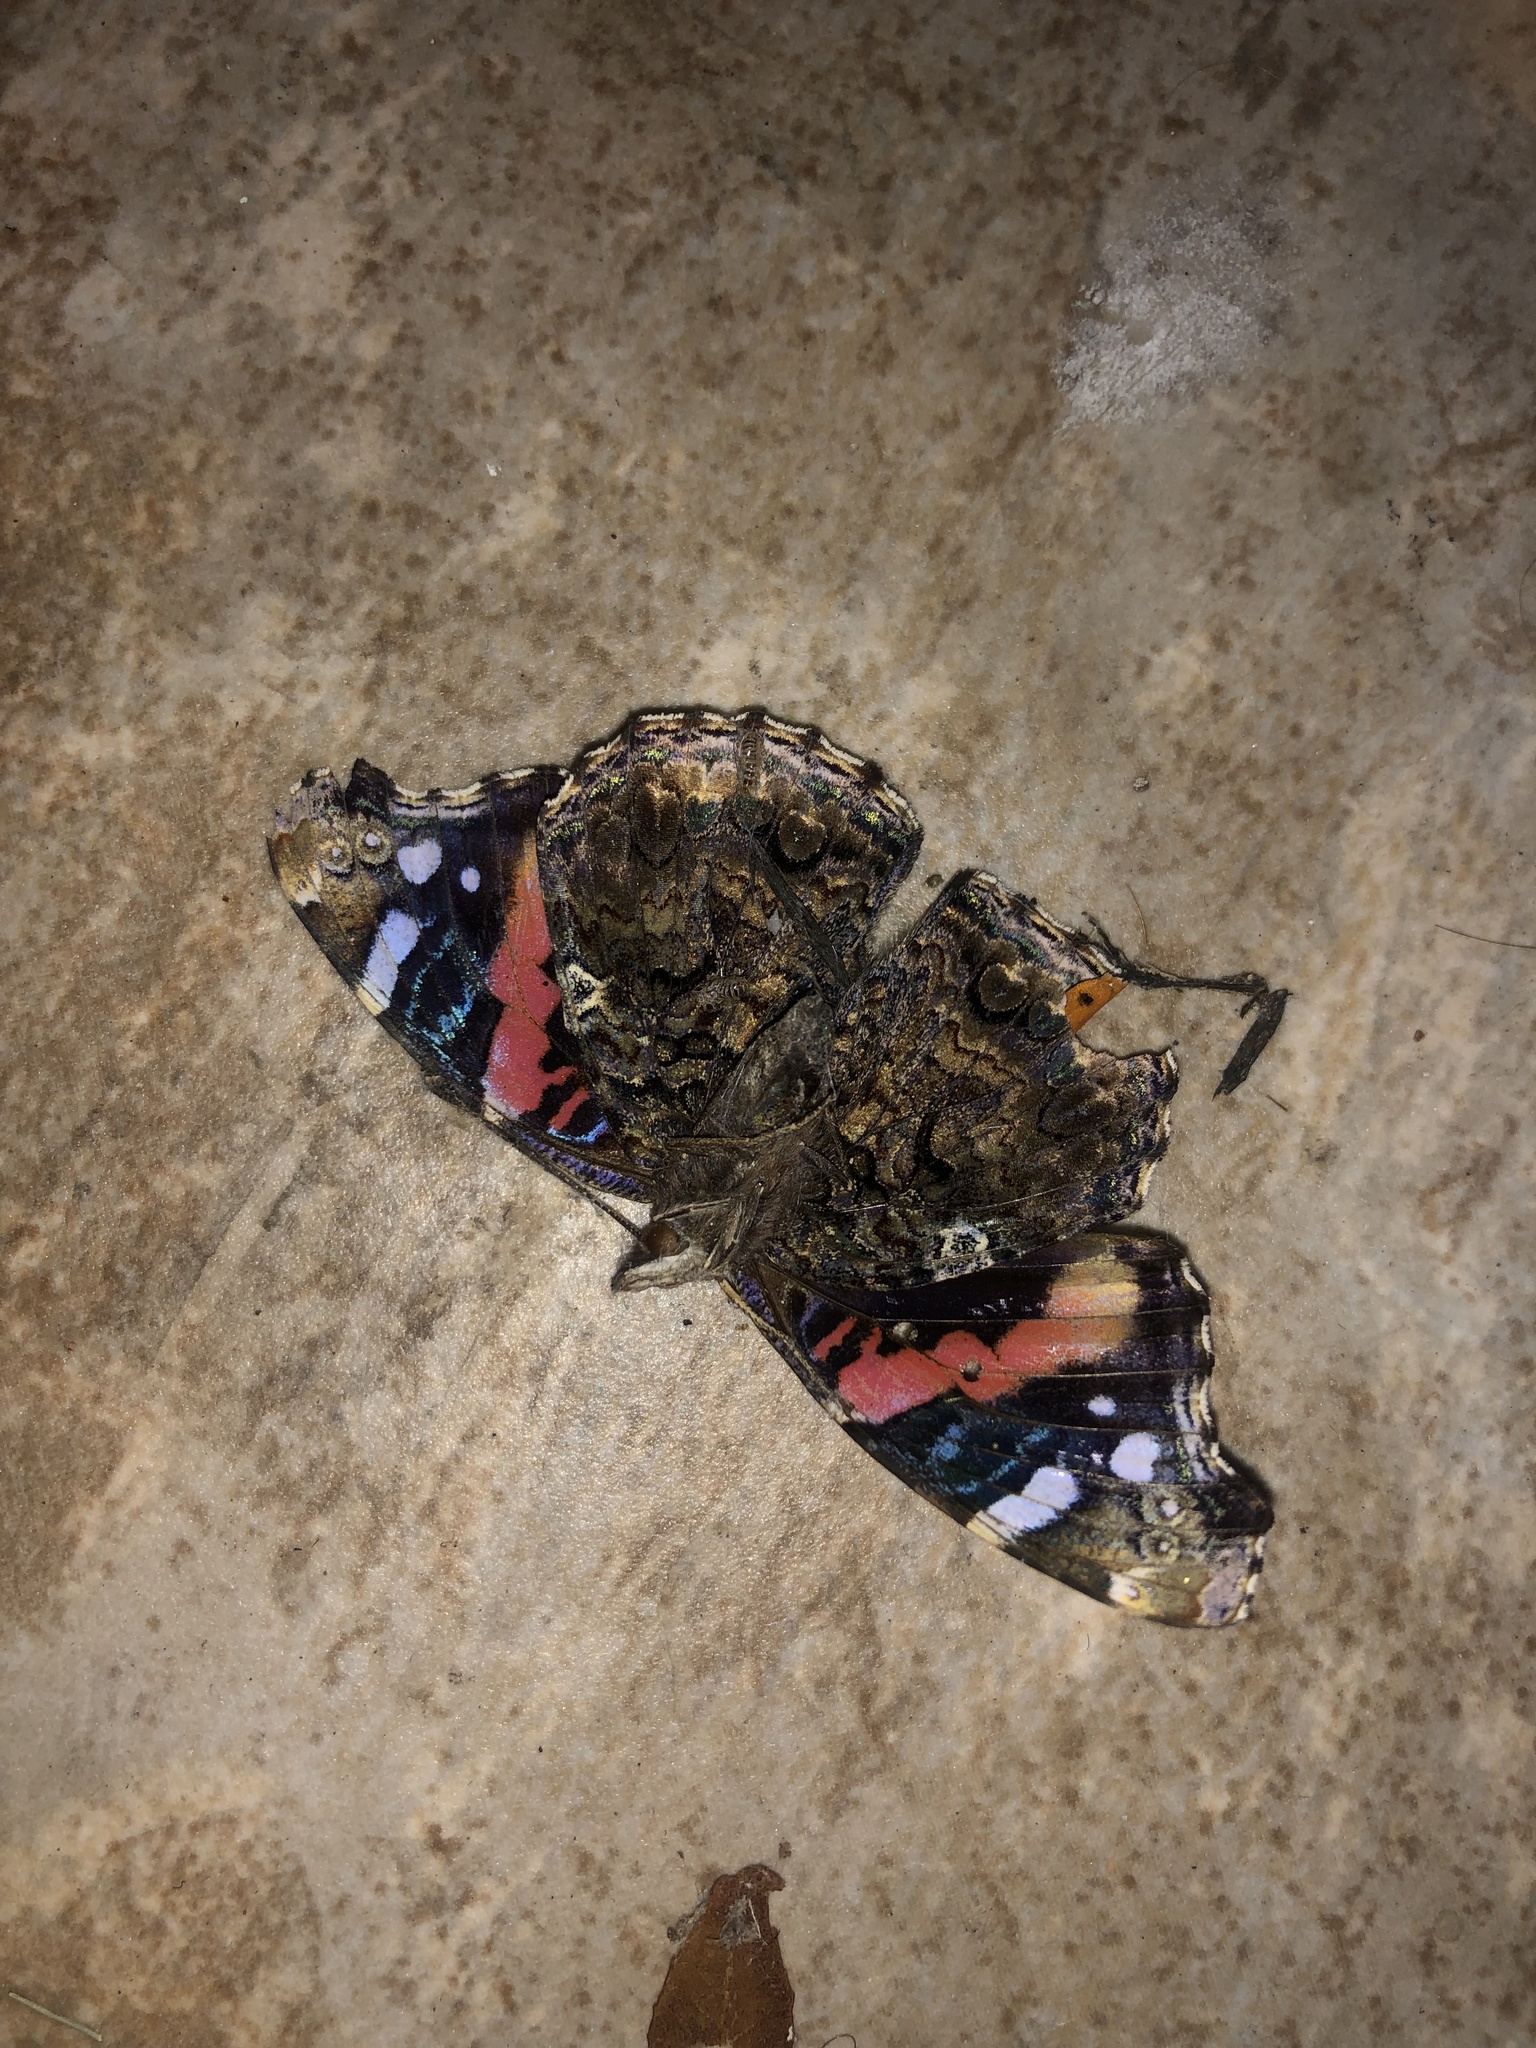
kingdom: Animalia
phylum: Arthropoda
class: Insecta
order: Lepidoptera
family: Nymphalidae
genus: Vanessa
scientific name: Vanessa atalanta
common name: Red admiral
